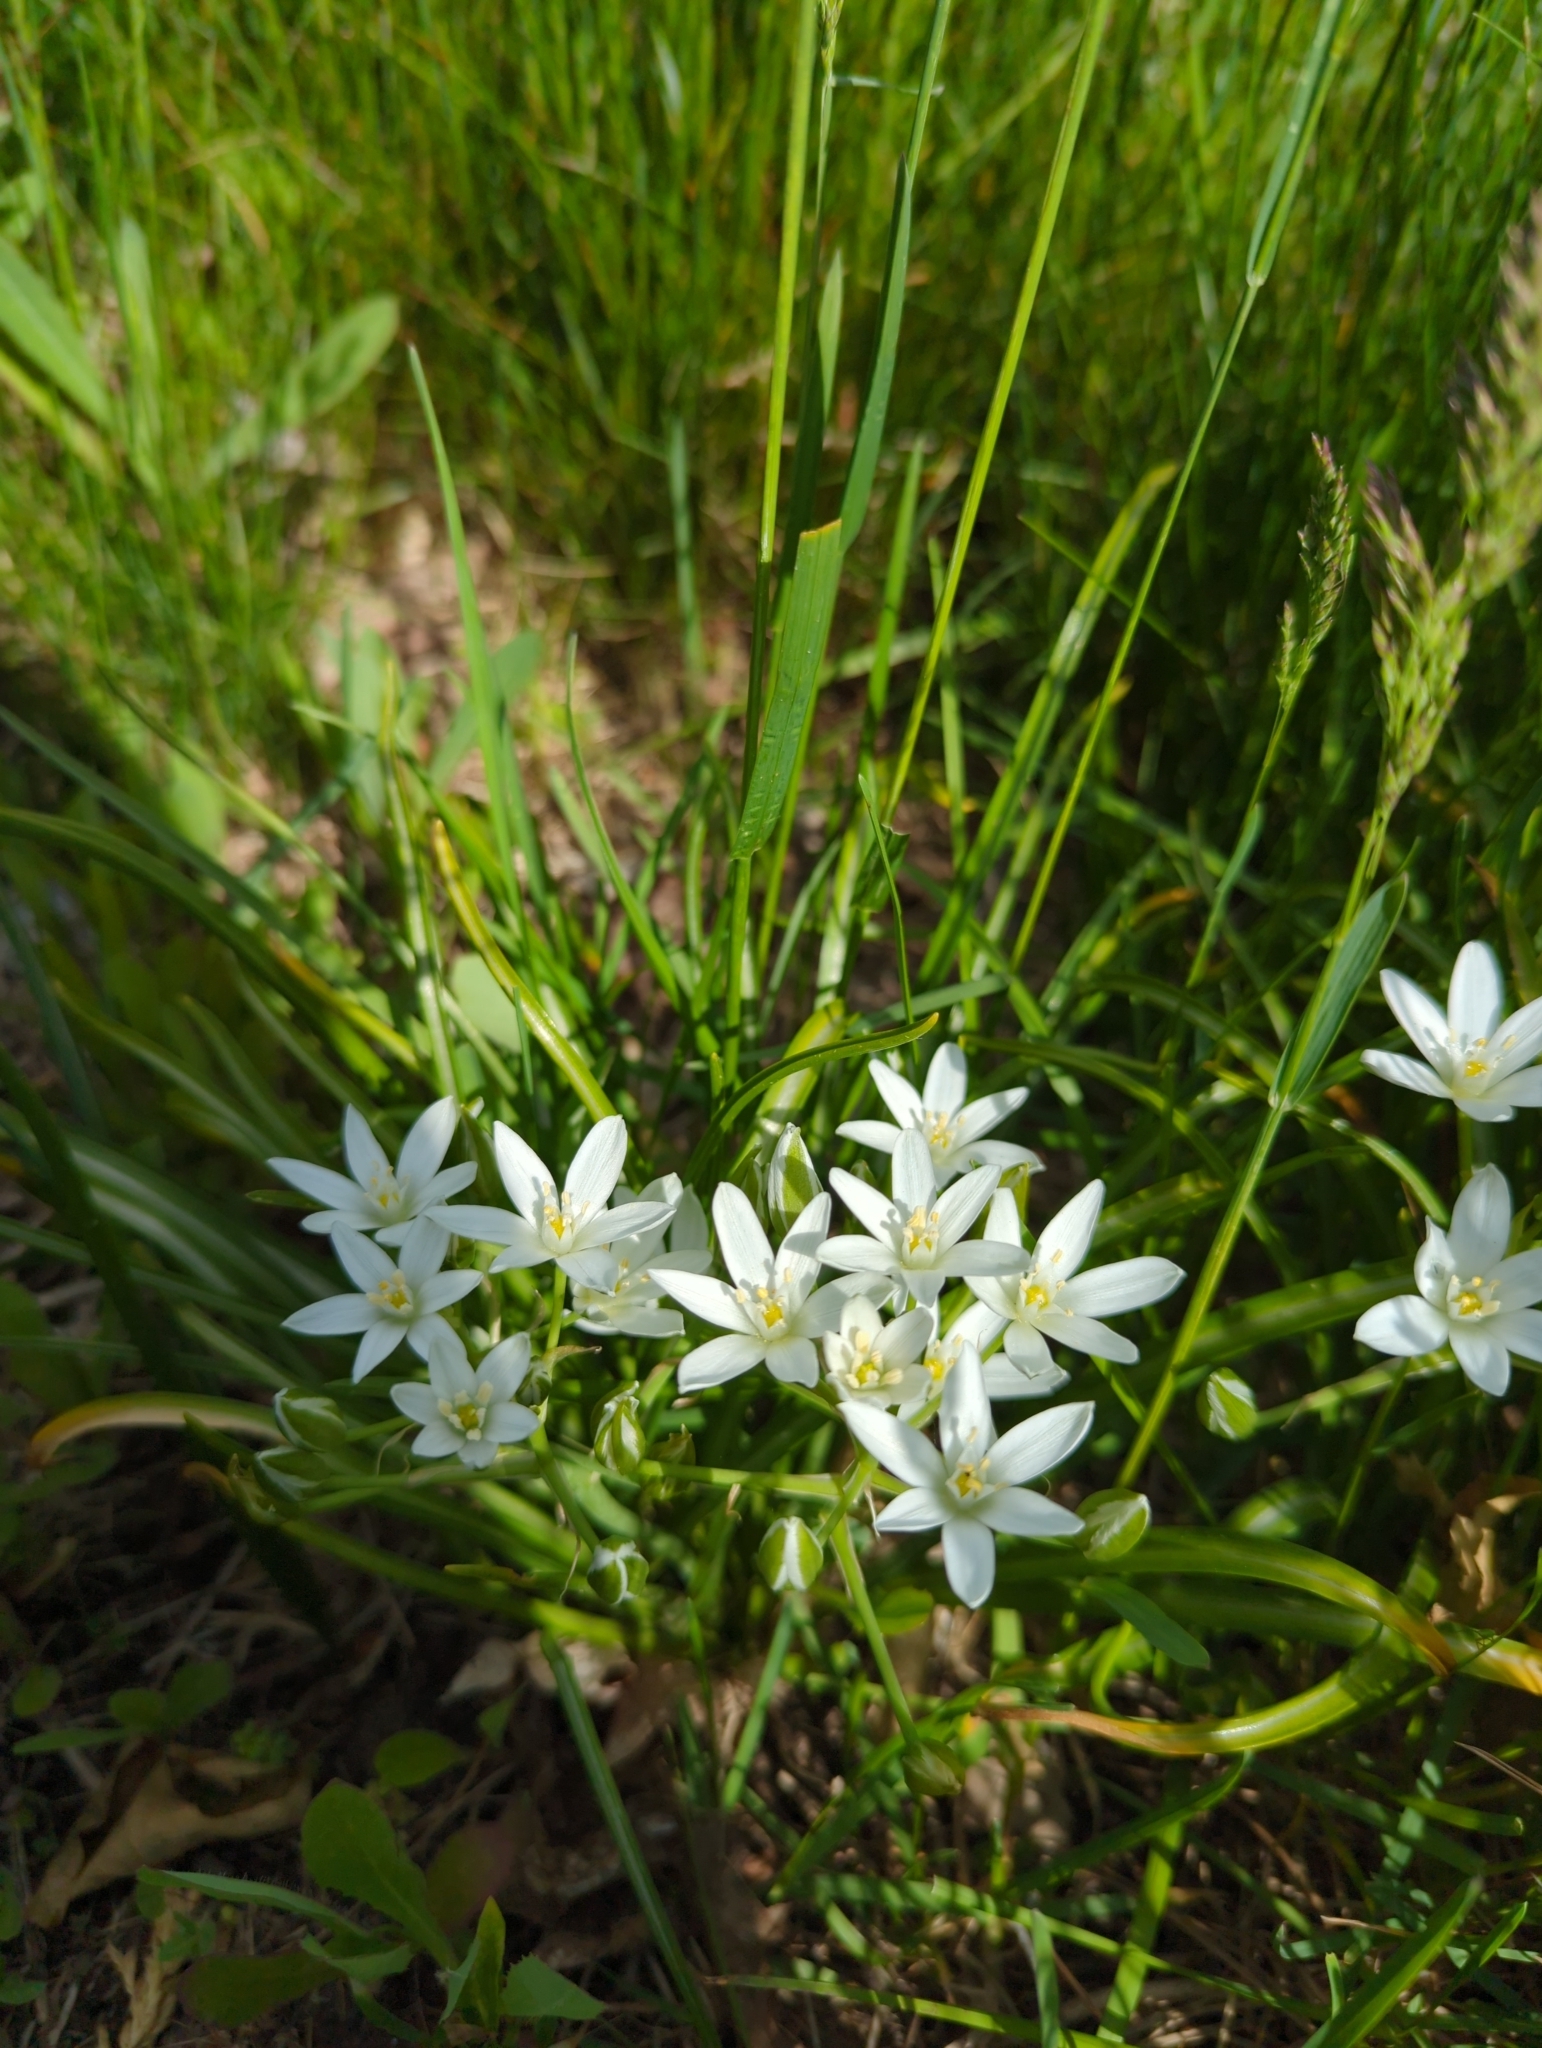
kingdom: Plantae
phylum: Tracheophyta
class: Liliopsida
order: Asparagales
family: Asparagaceae
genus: Ornithogalum
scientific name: Ornithogalum umbellatum
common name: Garden star-of-bethlehem
